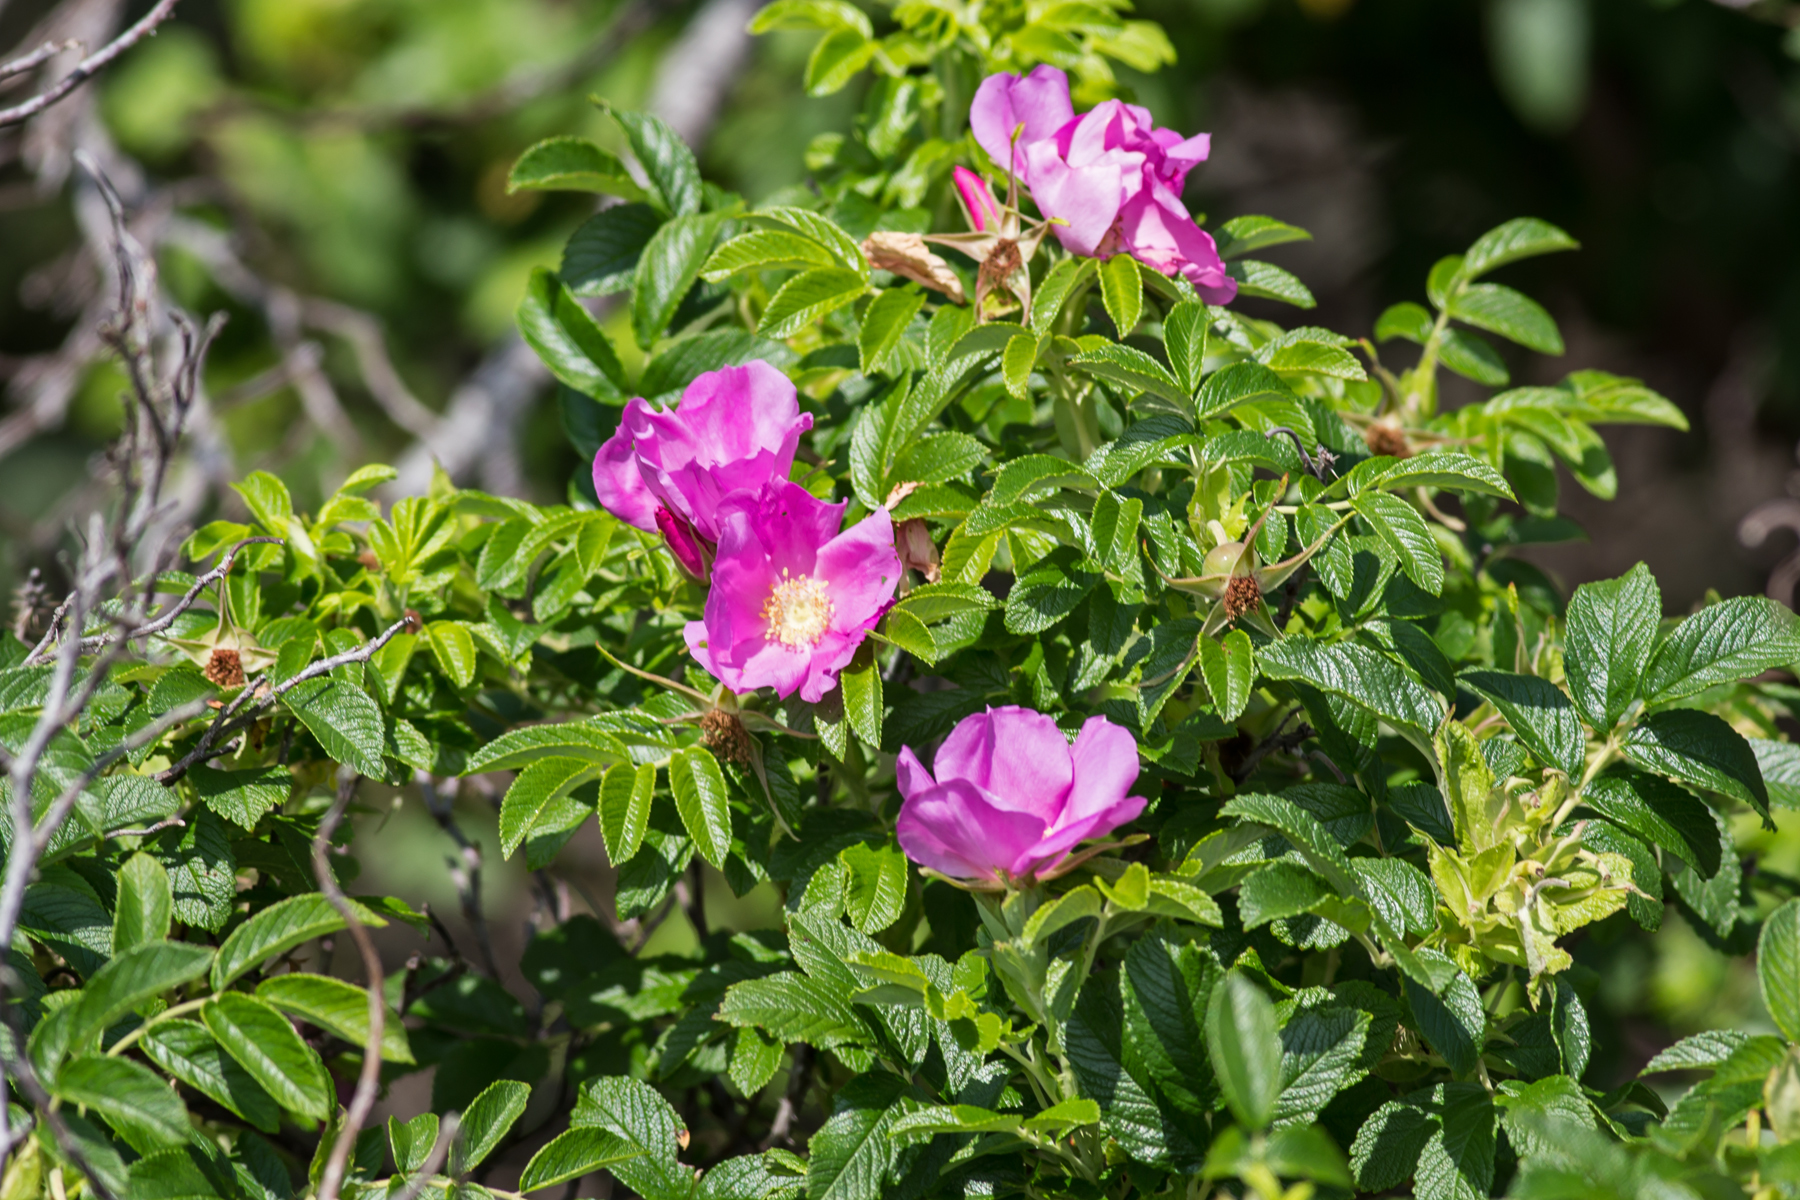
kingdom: Plantae
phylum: Tracheophyta
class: Magnoliopsida
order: Rosales
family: Rosaceae
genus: Rosa
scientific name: Rosa rugosa
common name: Japanese rose
